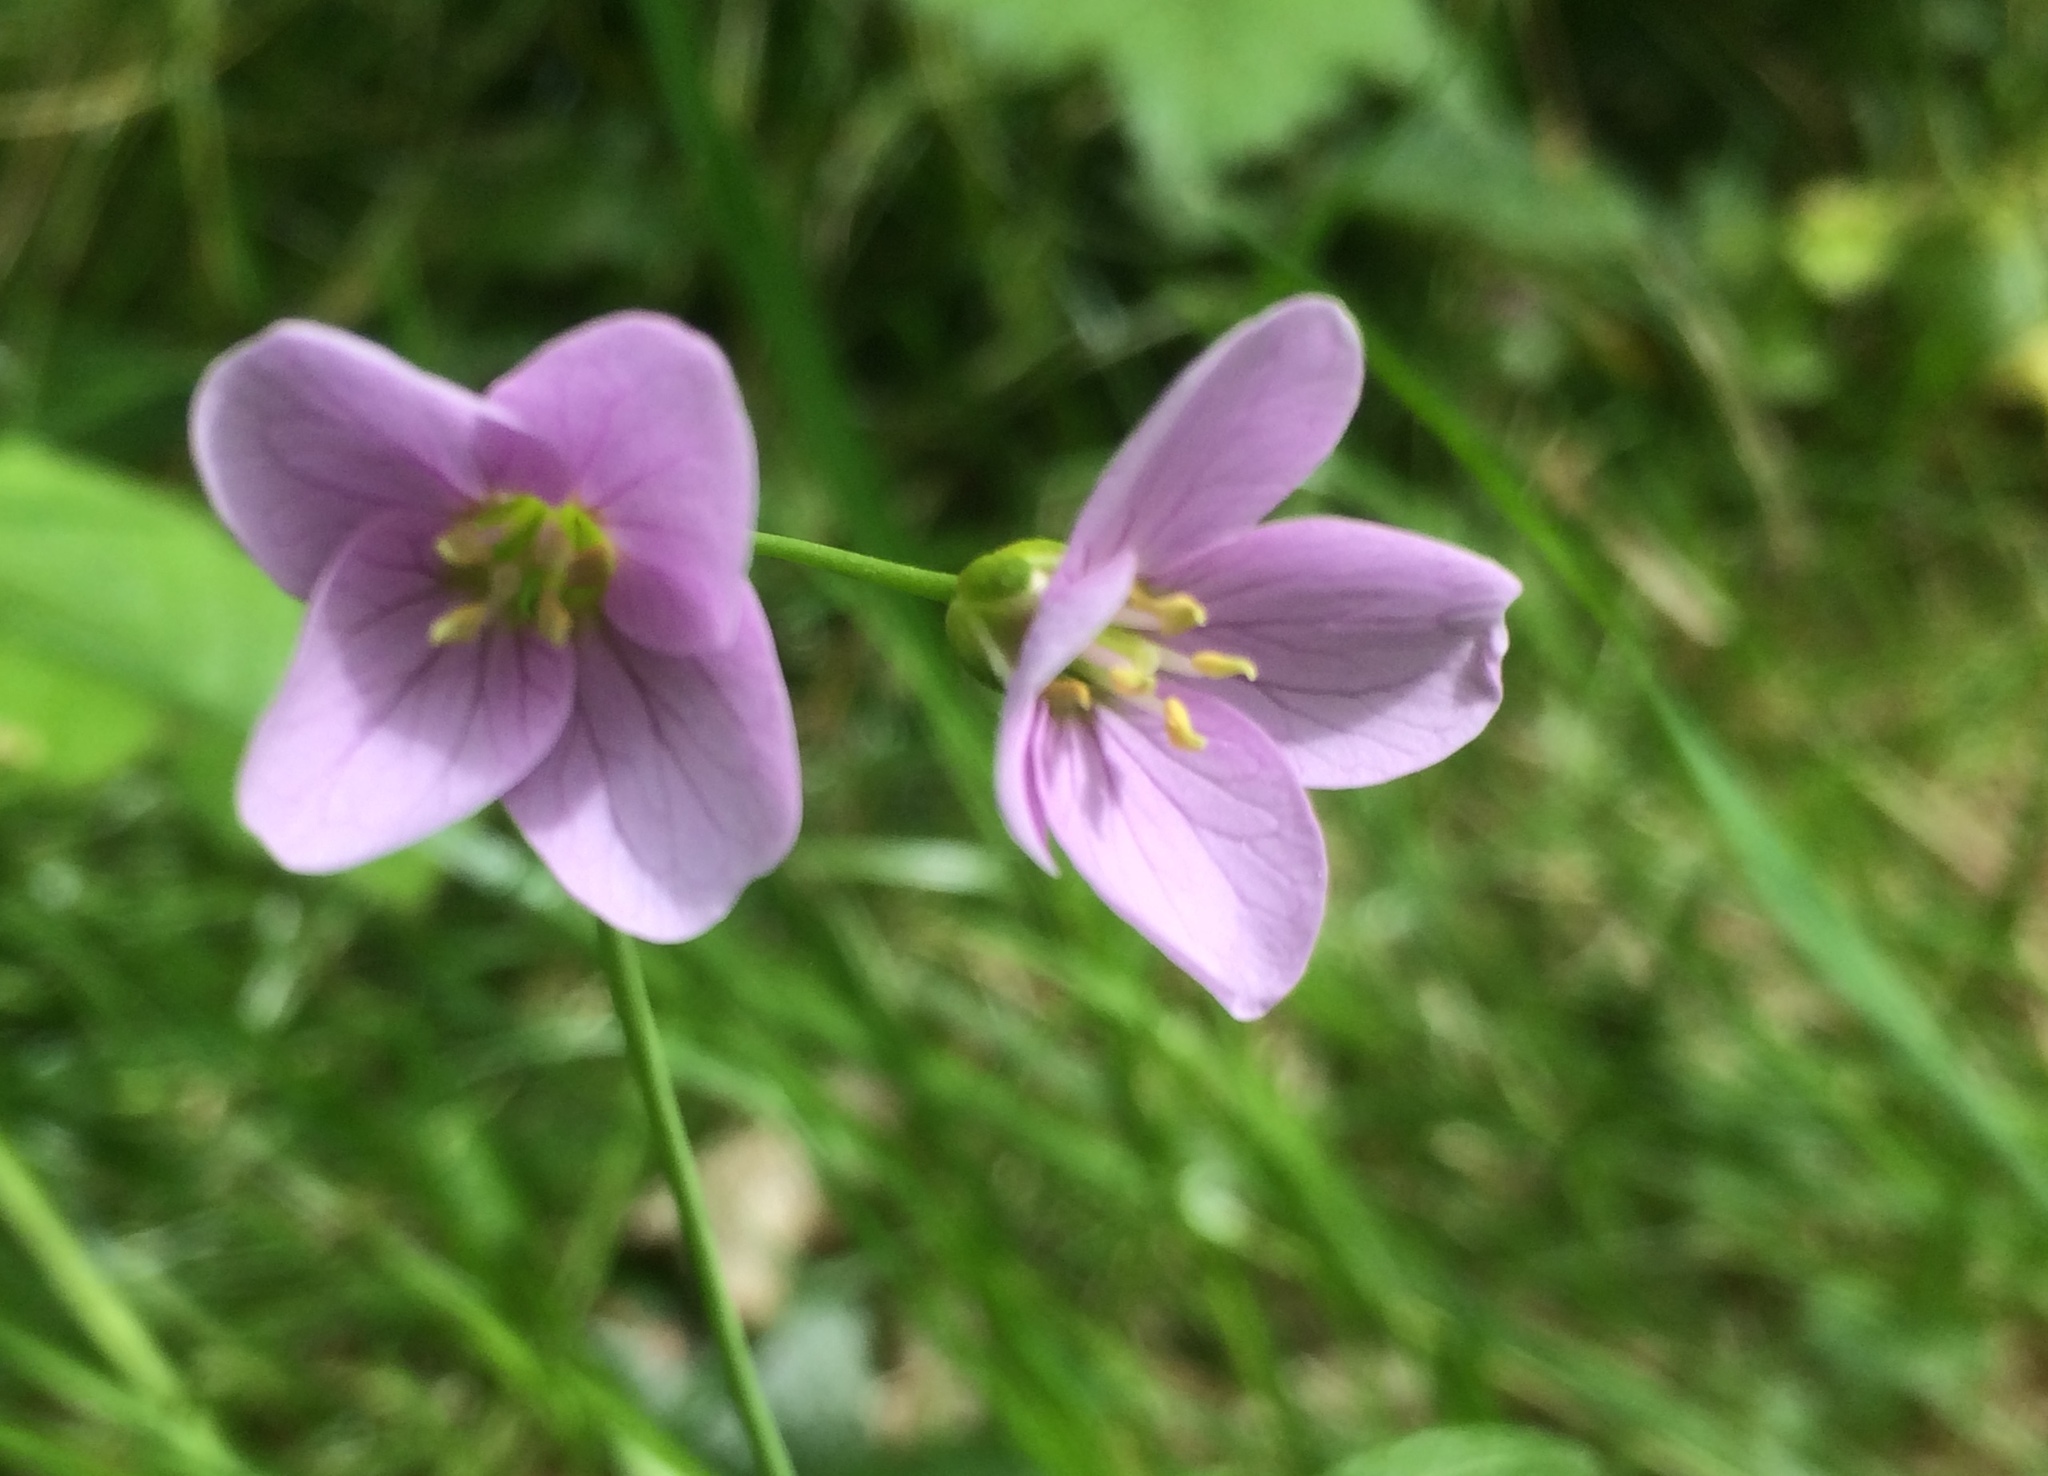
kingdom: Plantae
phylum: Tracheophyta
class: Magnoliopsida
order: Brassicales
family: Brassicaceae
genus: Cardamine
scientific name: Cardamine pratensis
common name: Cuckoo flower
